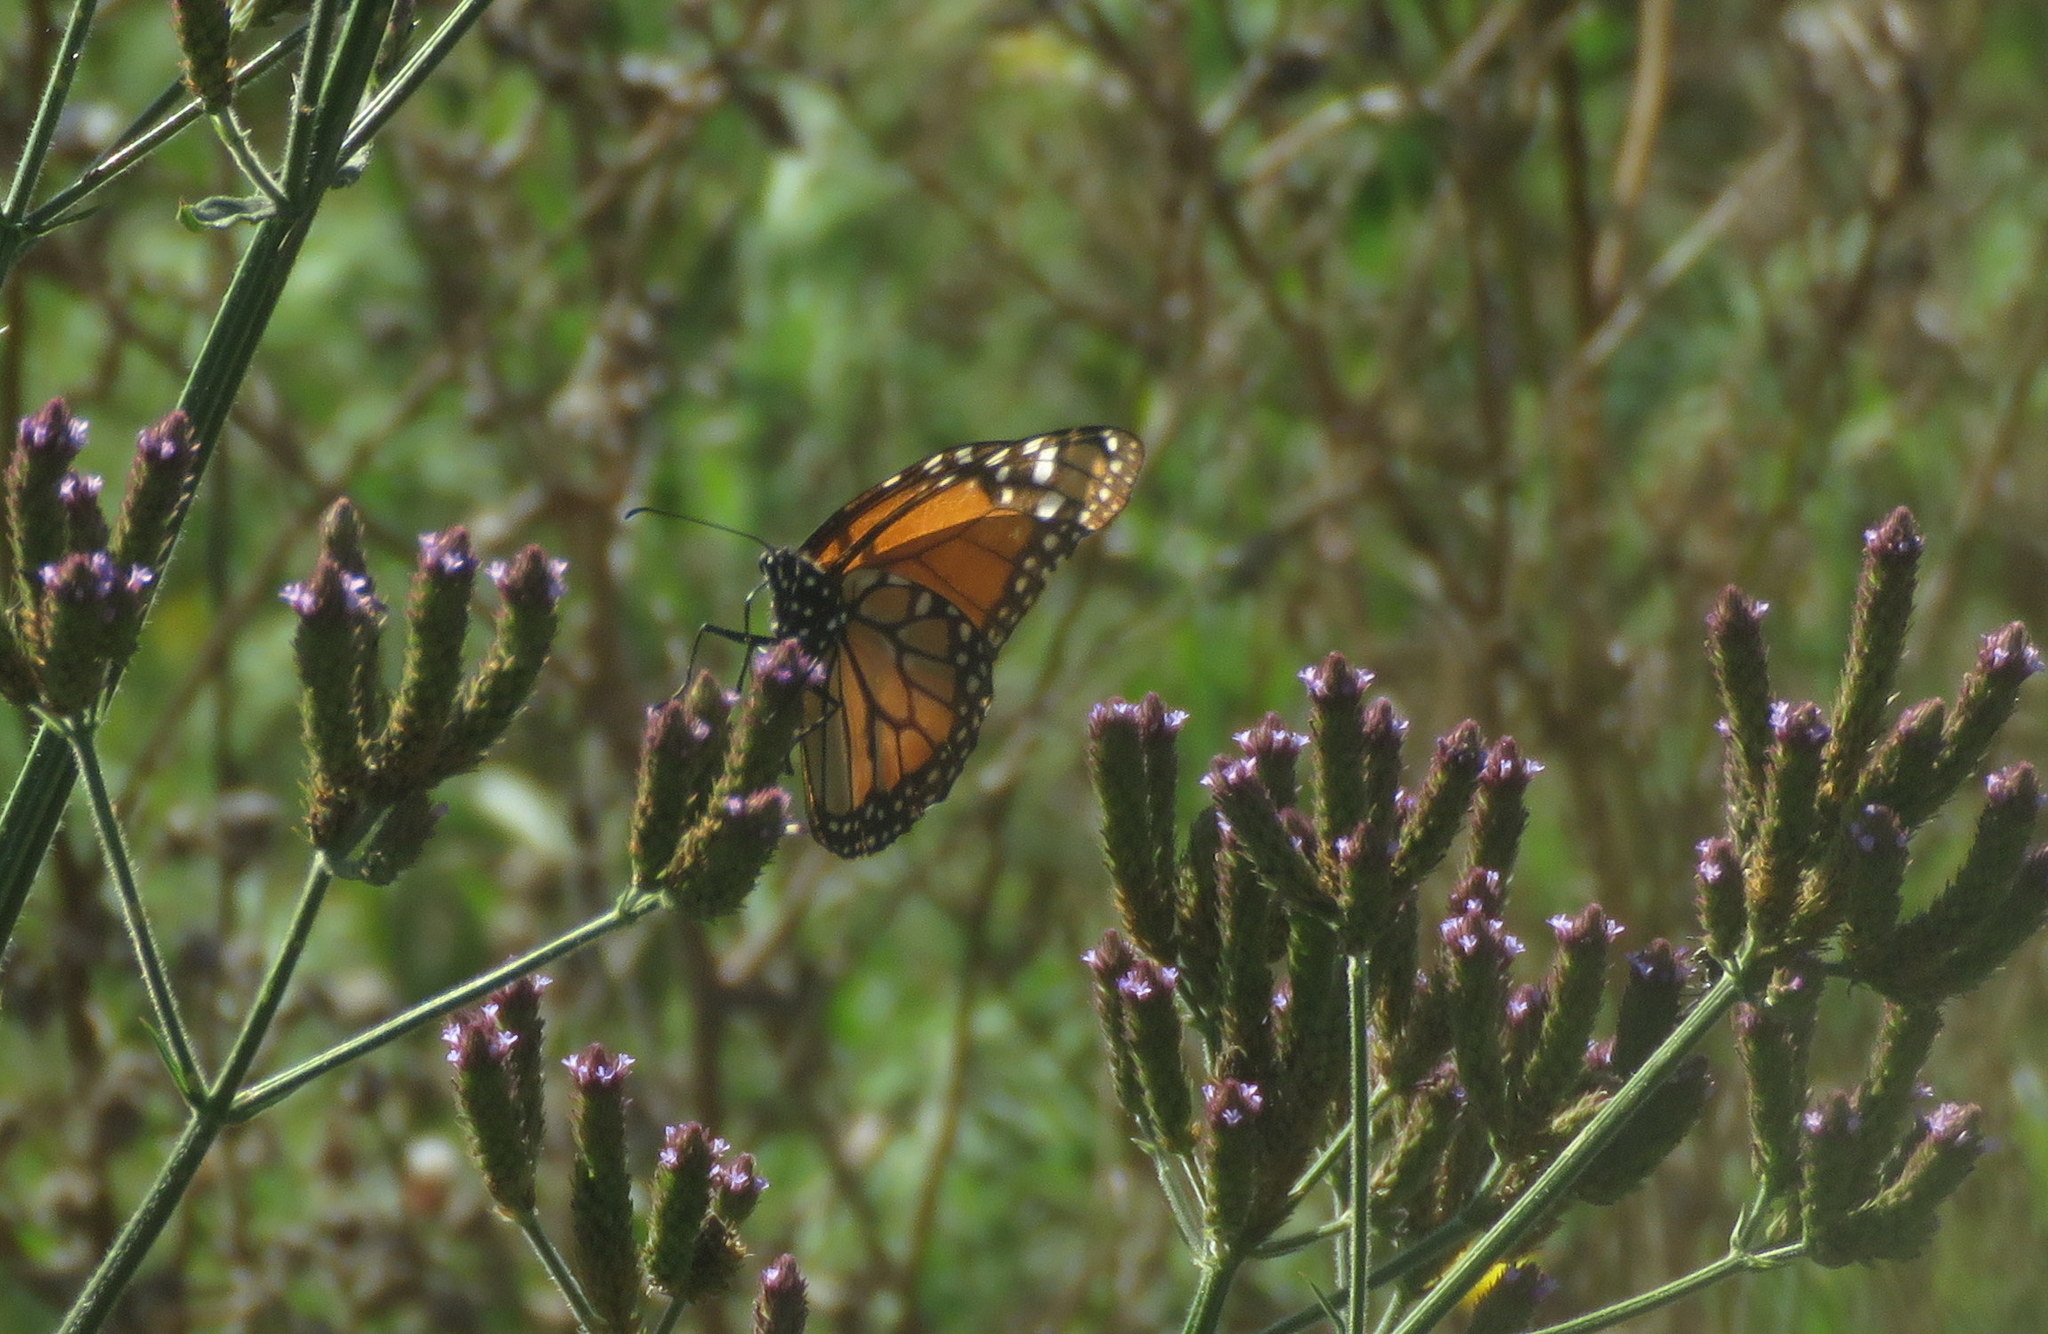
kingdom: Animalia
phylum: Arthropoda
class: Insecta
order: Lepidoptera
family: Nymphalidae
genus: Danaus
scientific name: Danaus erippus
